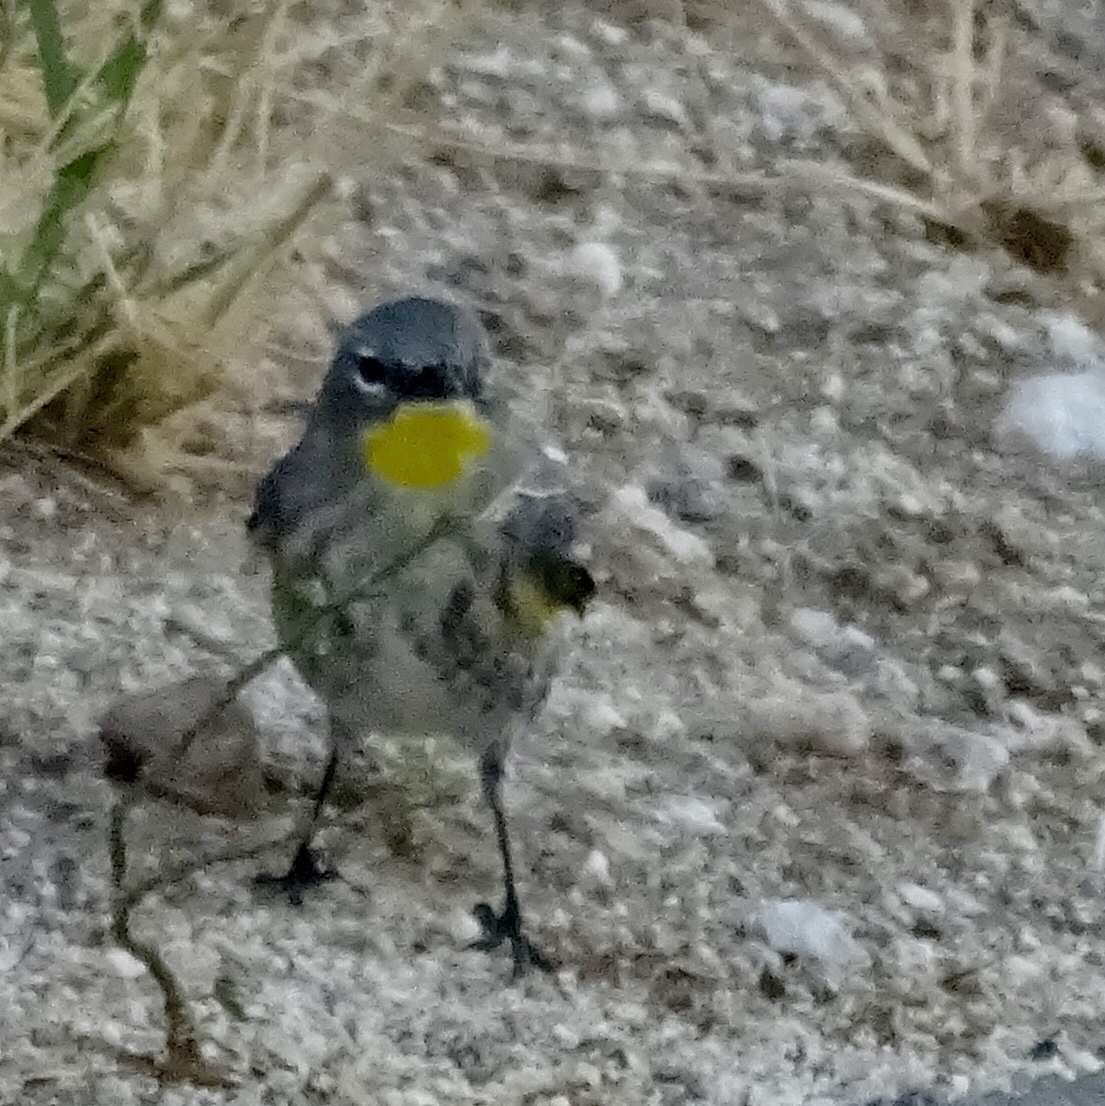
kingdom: Animalia
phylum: Chordata
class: Aves
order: Passeriformes
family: Parulidae
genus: Setophaga
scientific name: Setophaga coronata
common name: Myrtle warbler
